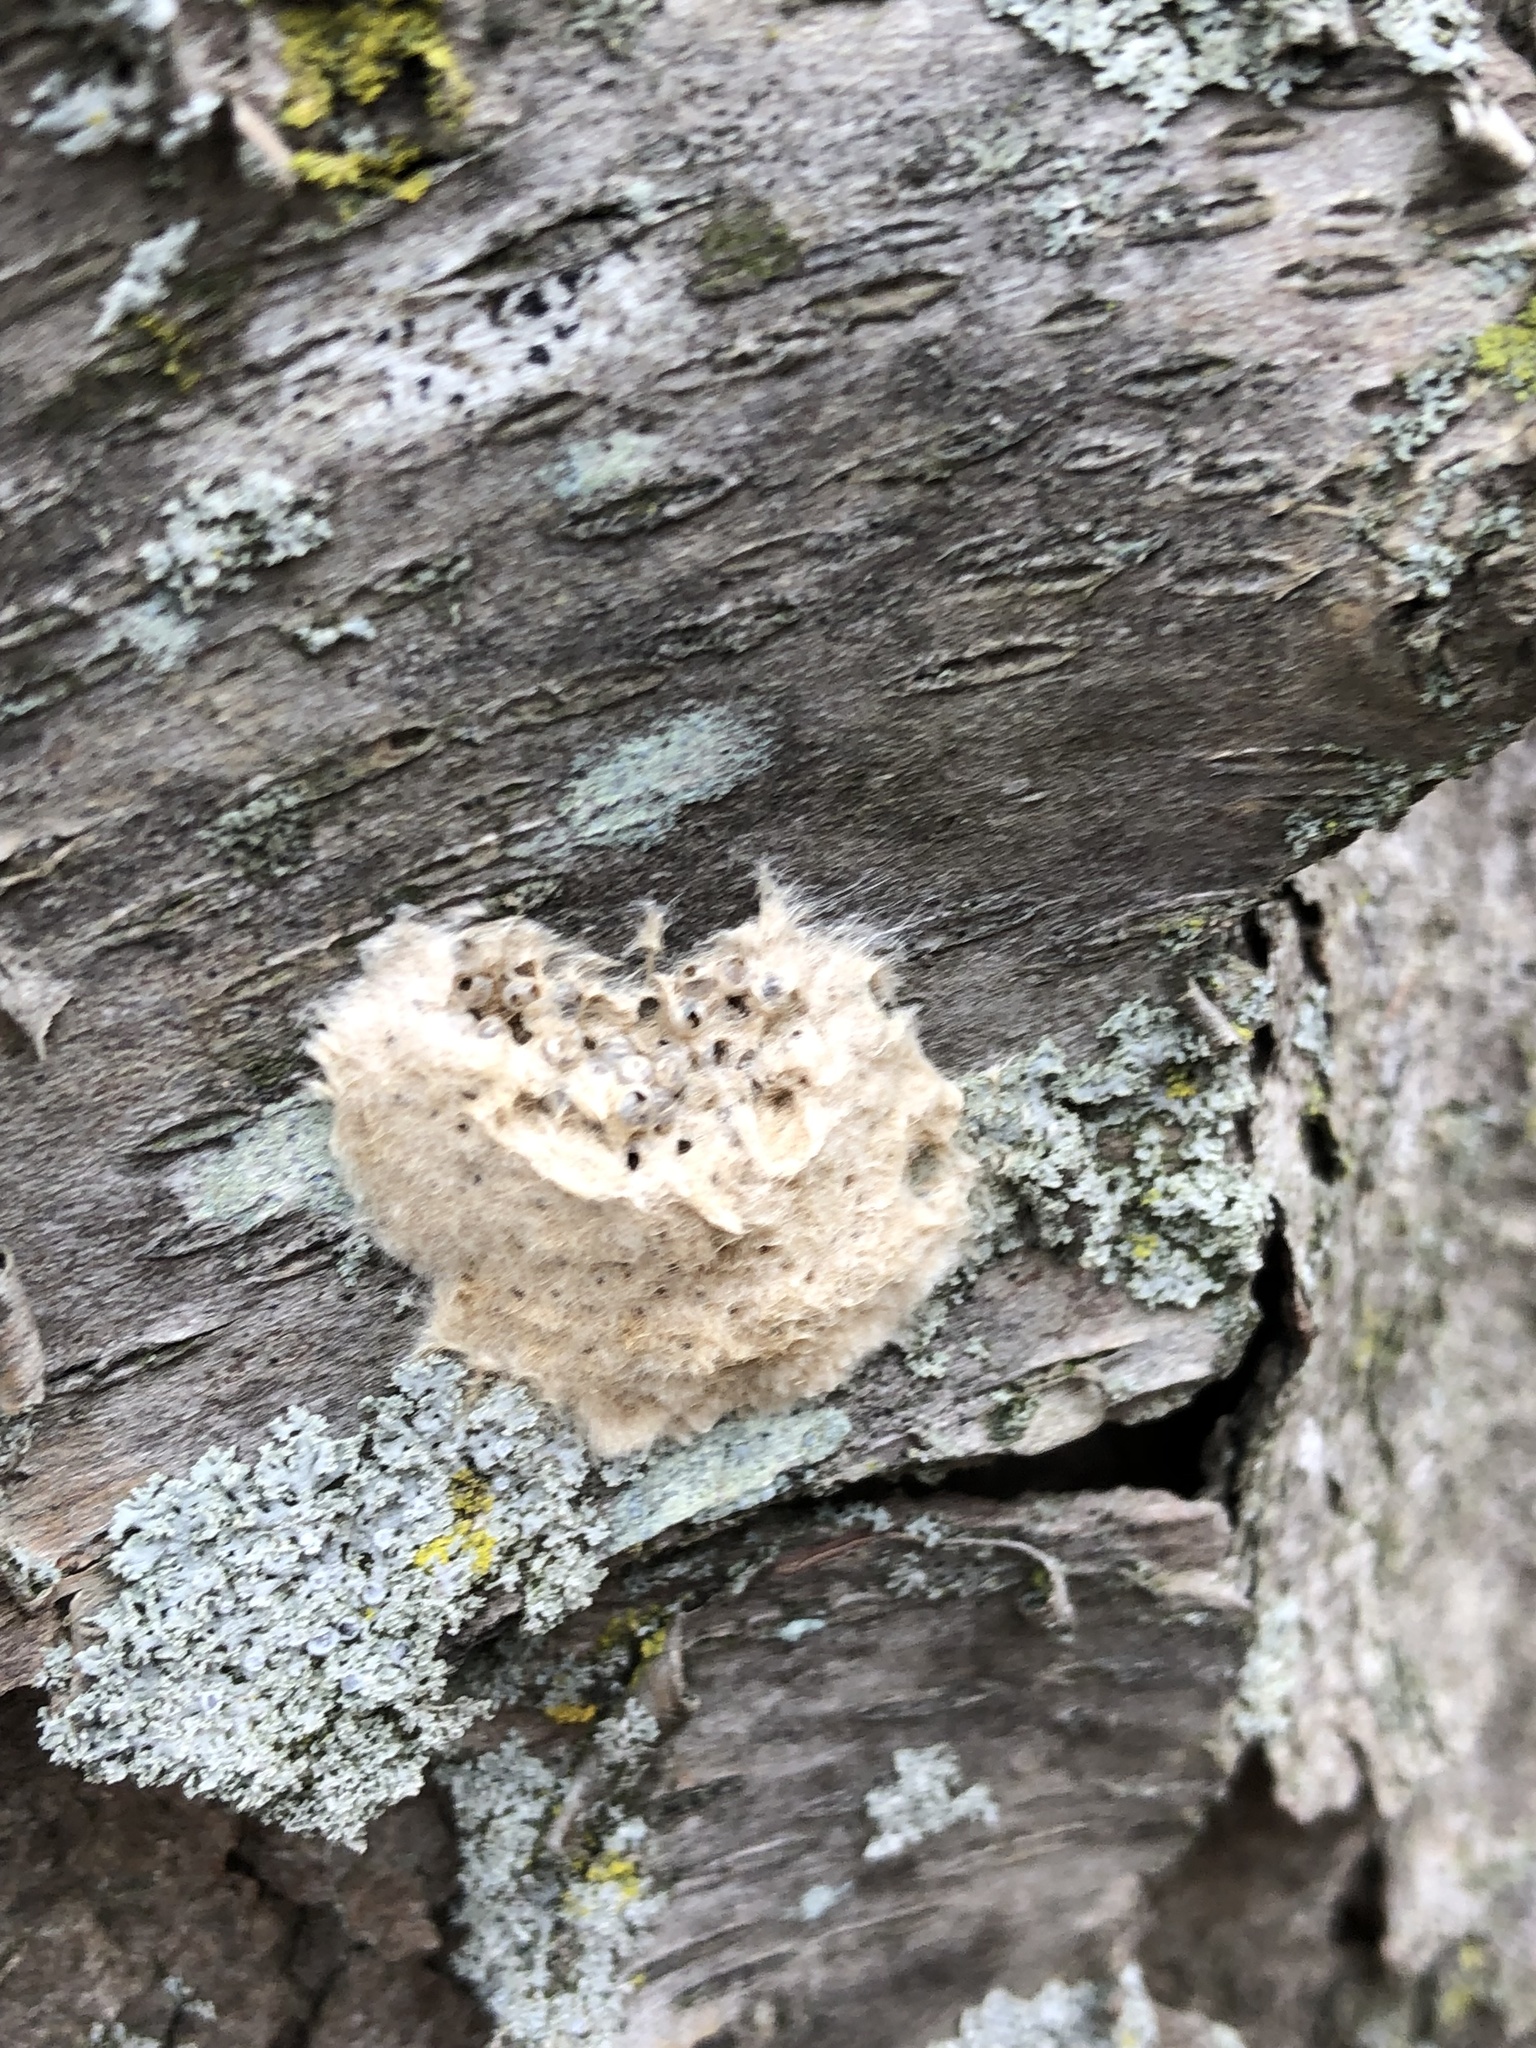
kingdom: Animalia
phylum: Arthropoda
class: Insecta
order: Lepidoptera
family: Erebidae
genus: Lymantria
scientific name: Lymantria dispar
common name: Gypsy moth
